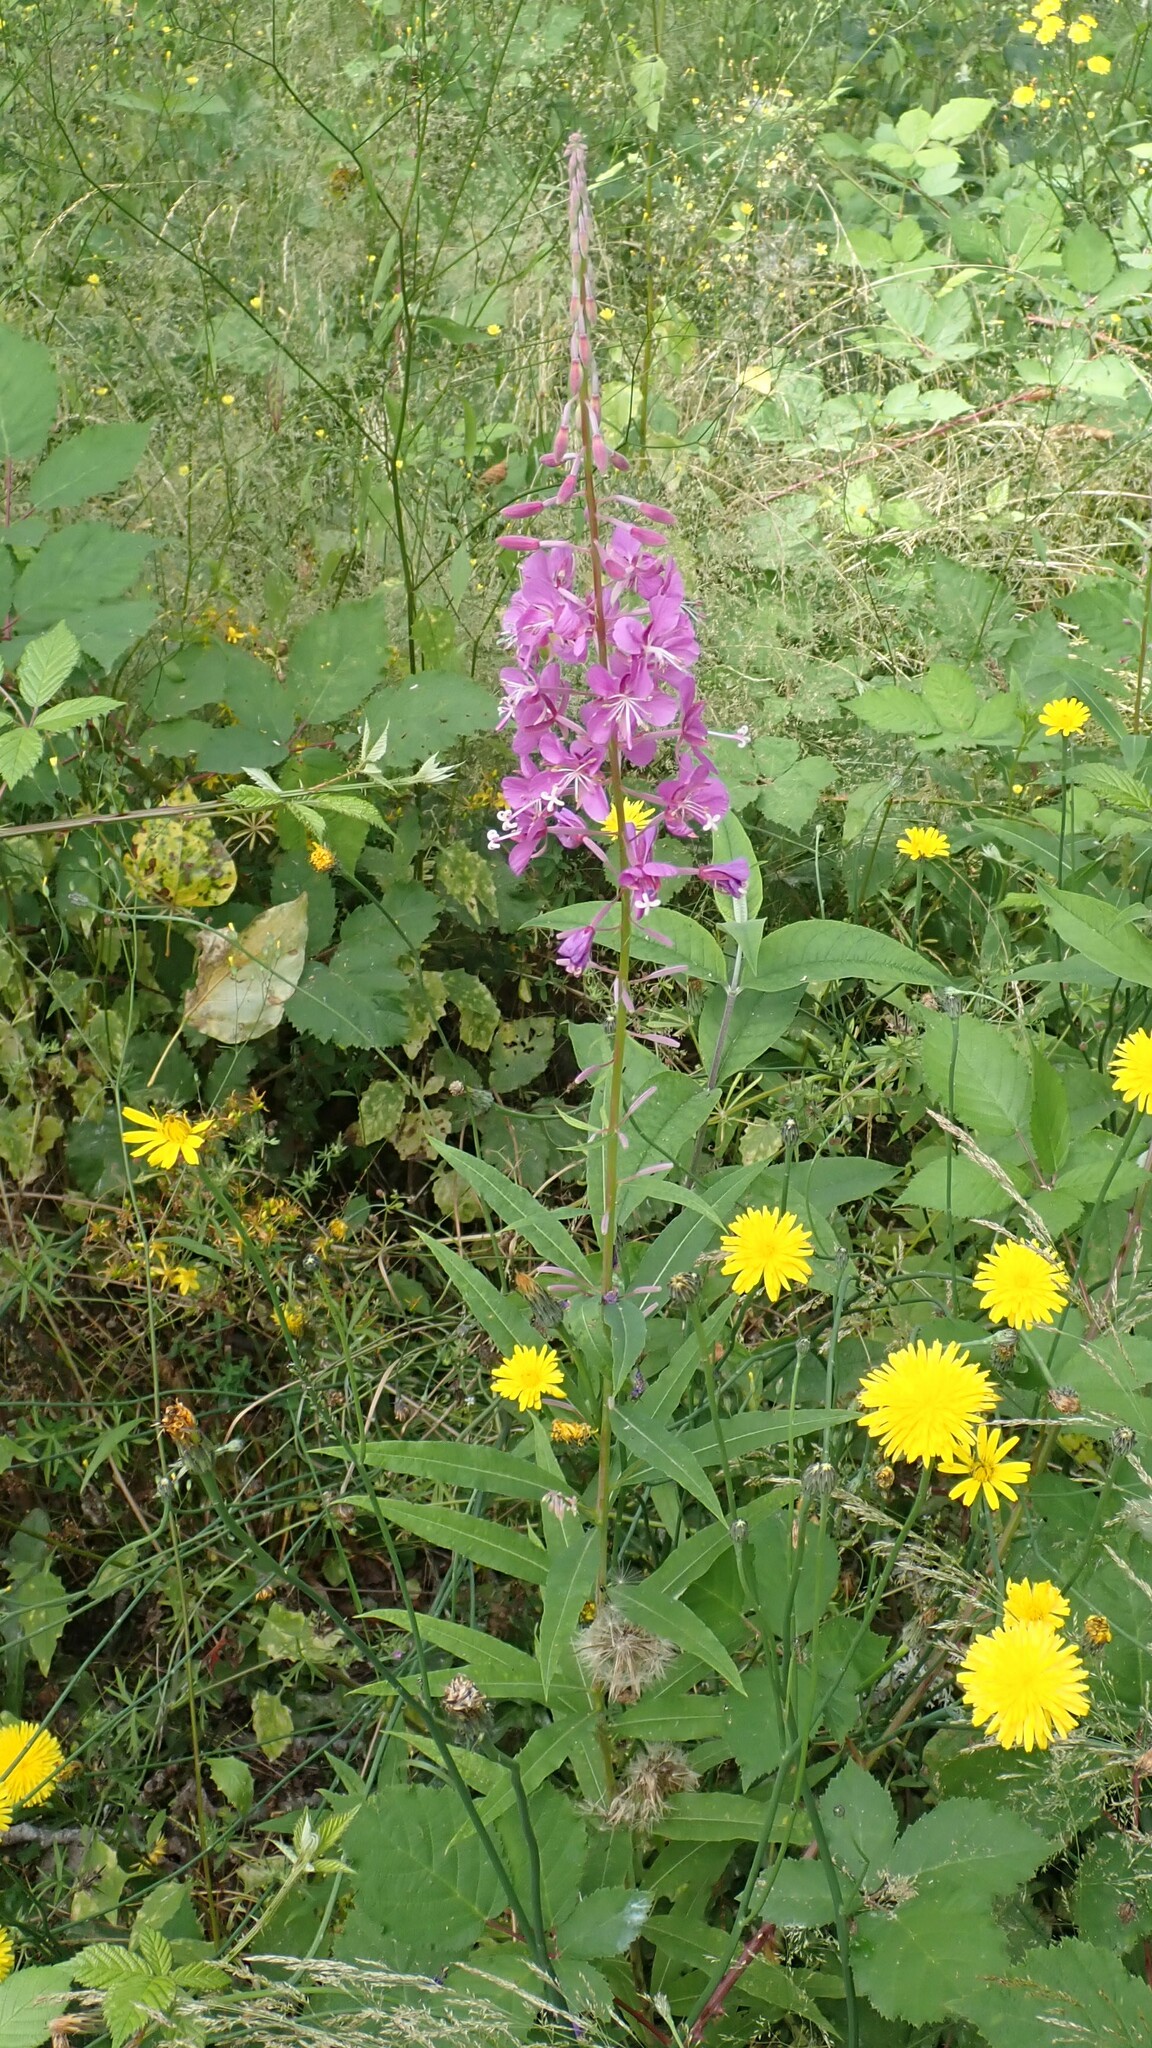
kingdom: Plantae
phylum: Tracheophyta
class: Magnoliopsida
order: Myrtales
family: Onagraceae
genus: Chamaenerion
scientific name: Chamaenerion angustifolium
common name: Fireweed
